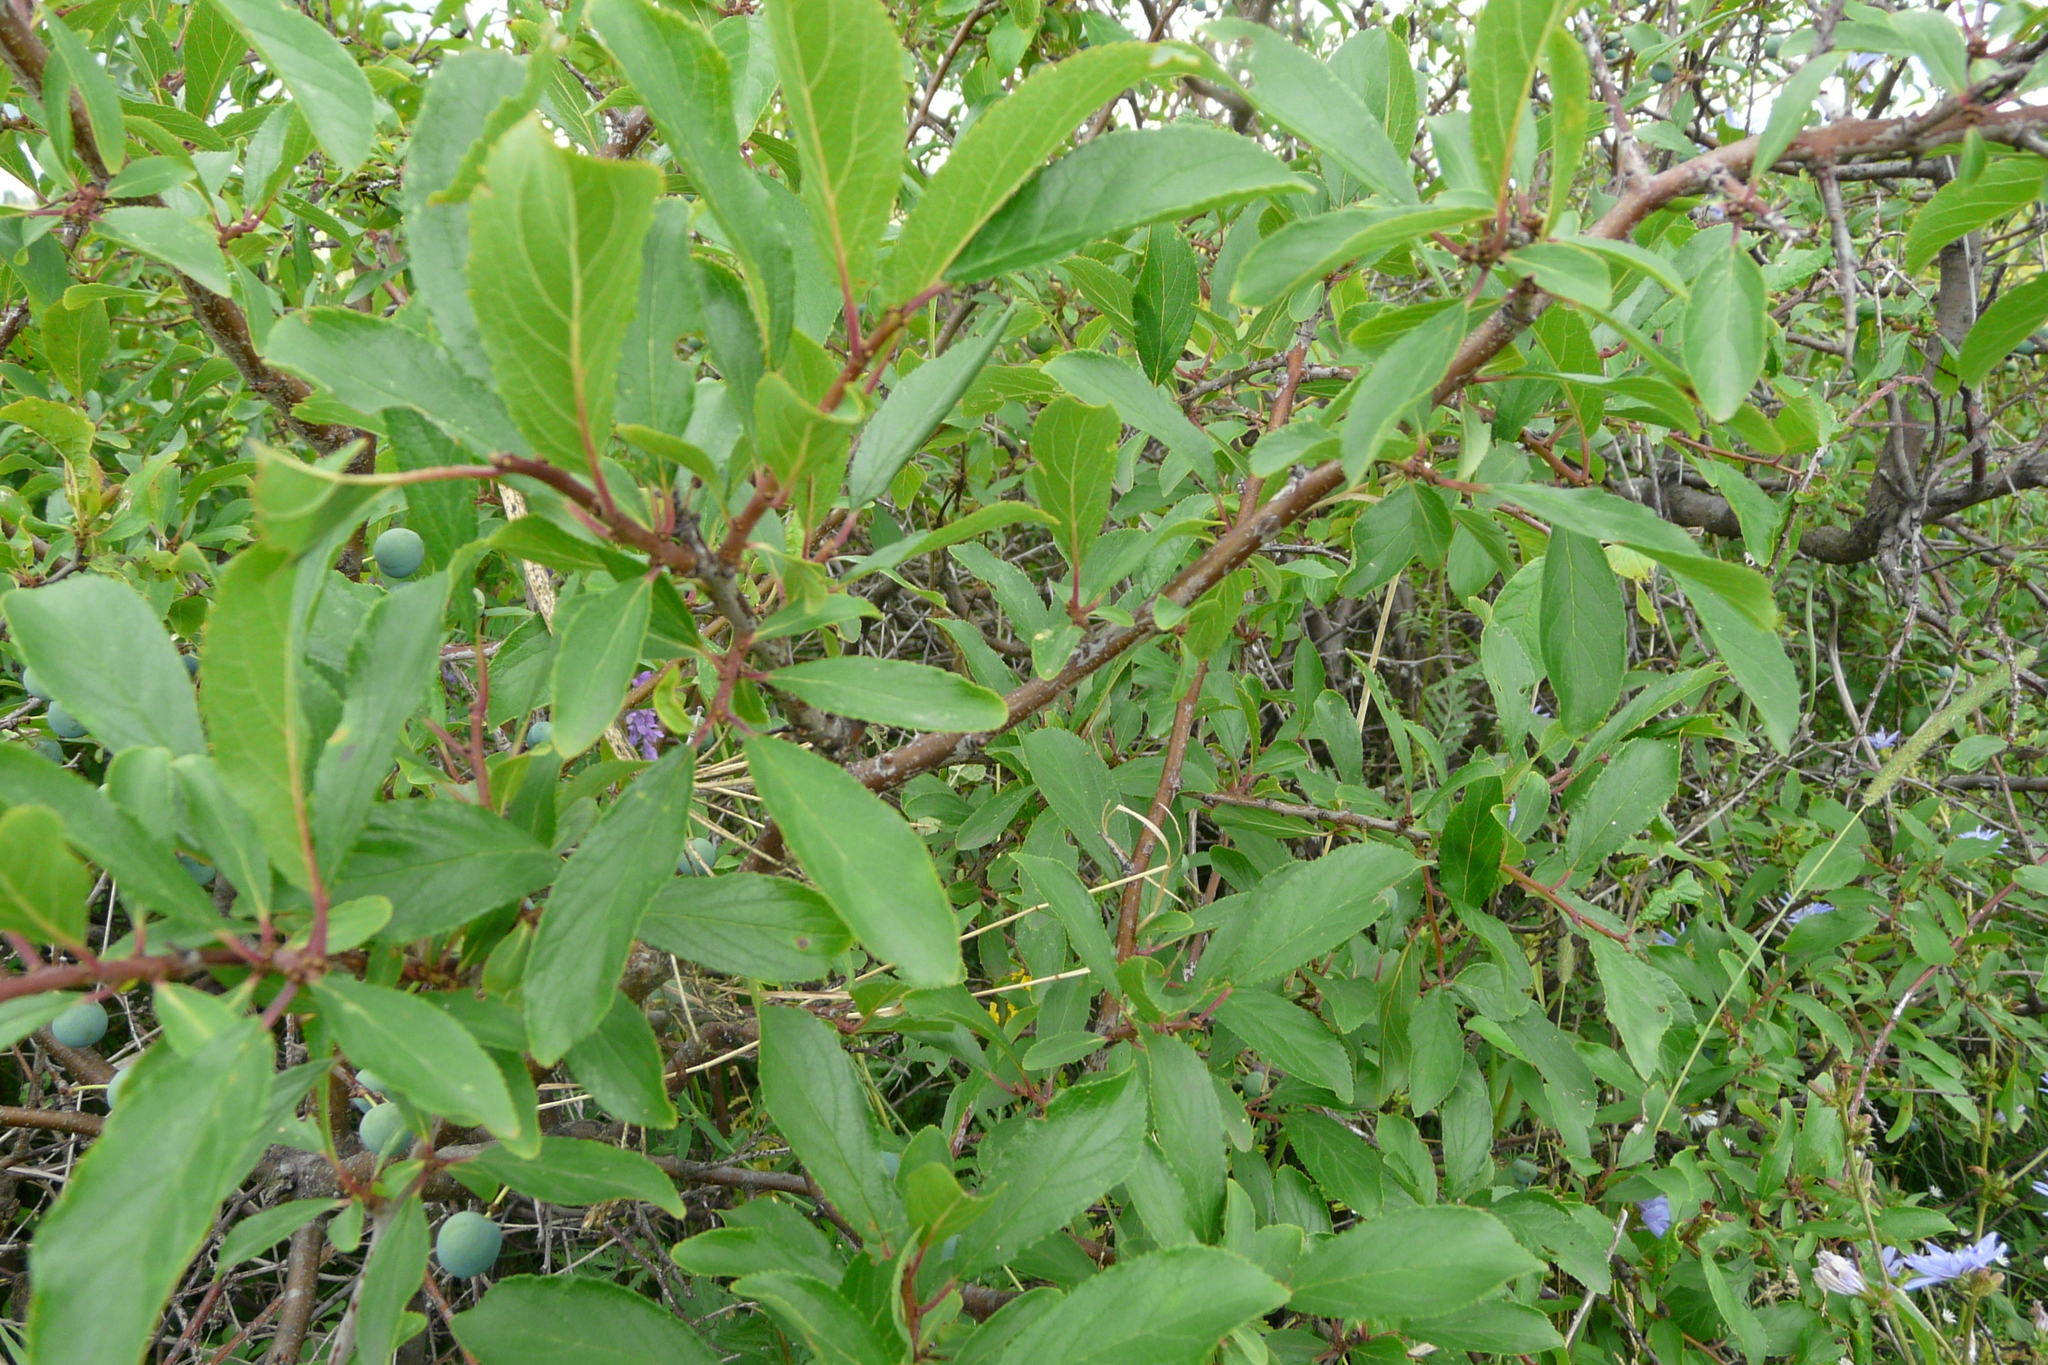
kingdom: Plantae
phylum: Tracheophyta
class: Magnoliopsida
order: Rosales
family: Rosaceae
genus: Prunus
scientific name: Prunus spinosa
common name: Blackthorn
